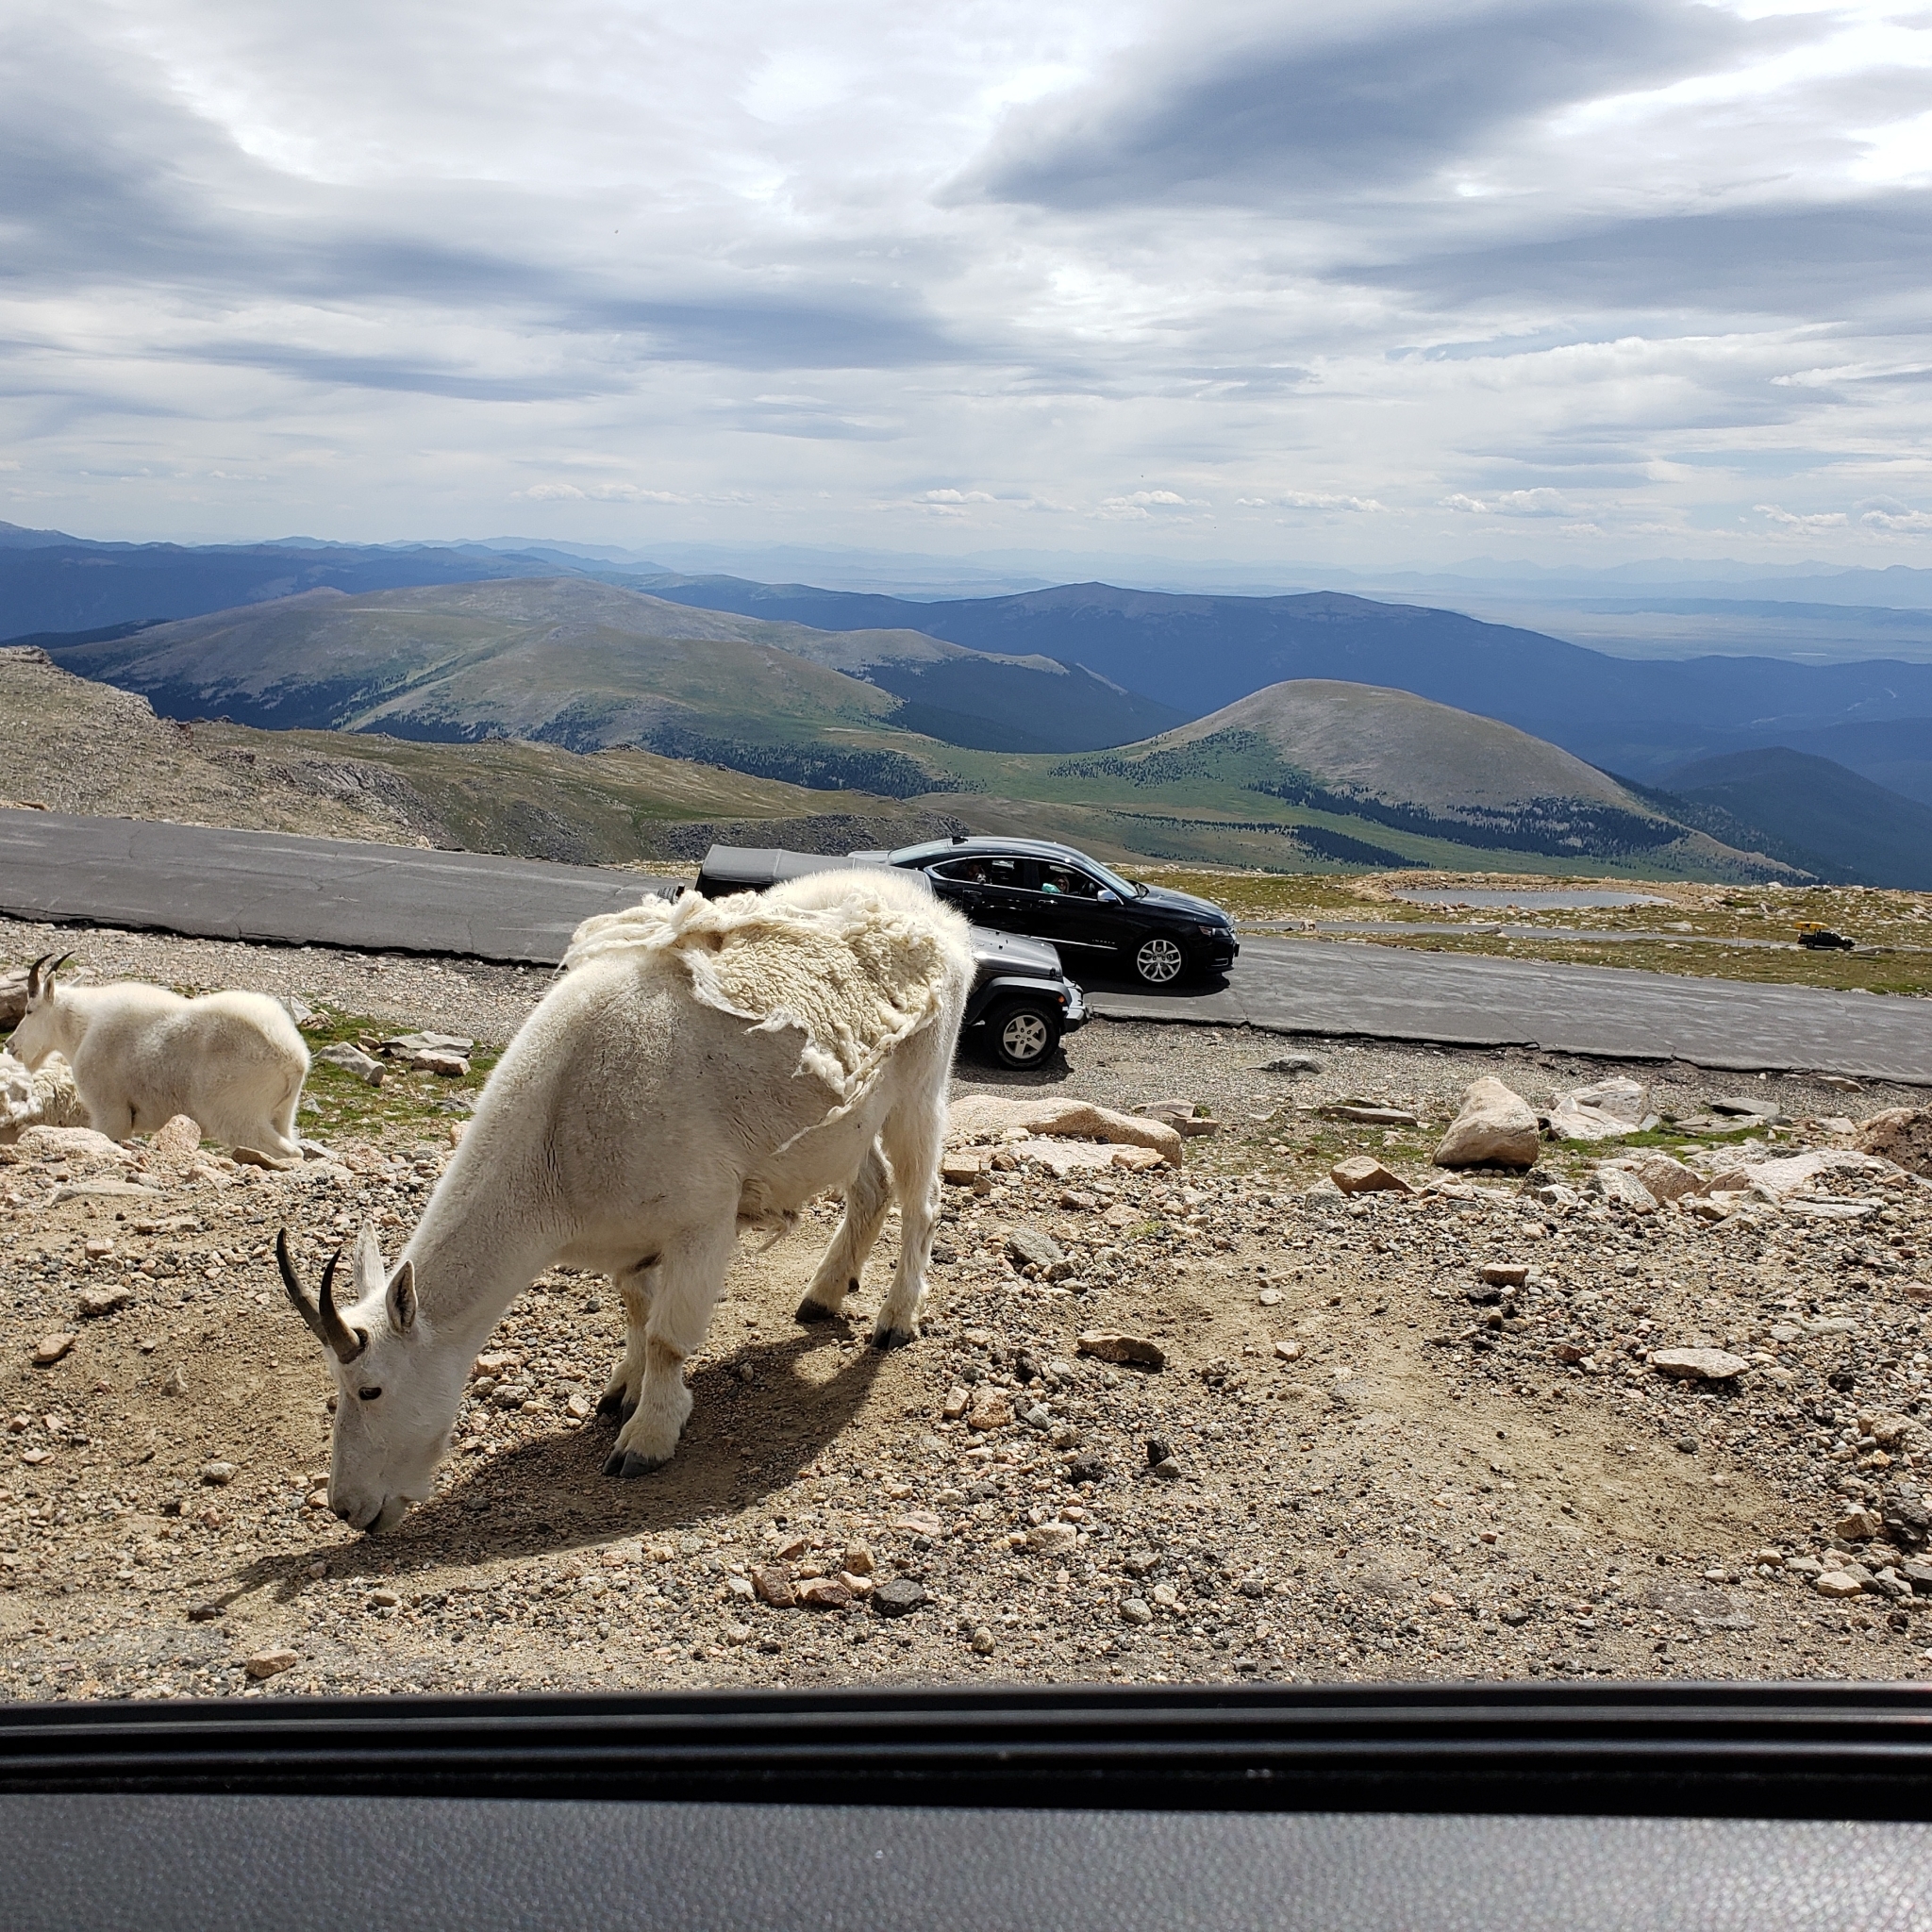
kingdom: Animalia
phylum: Chordata
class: Mammalia
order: Artiodactyla
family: Bovidae
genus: Oreamnos
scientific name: Oreamnos americanus
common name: Mountain goat
